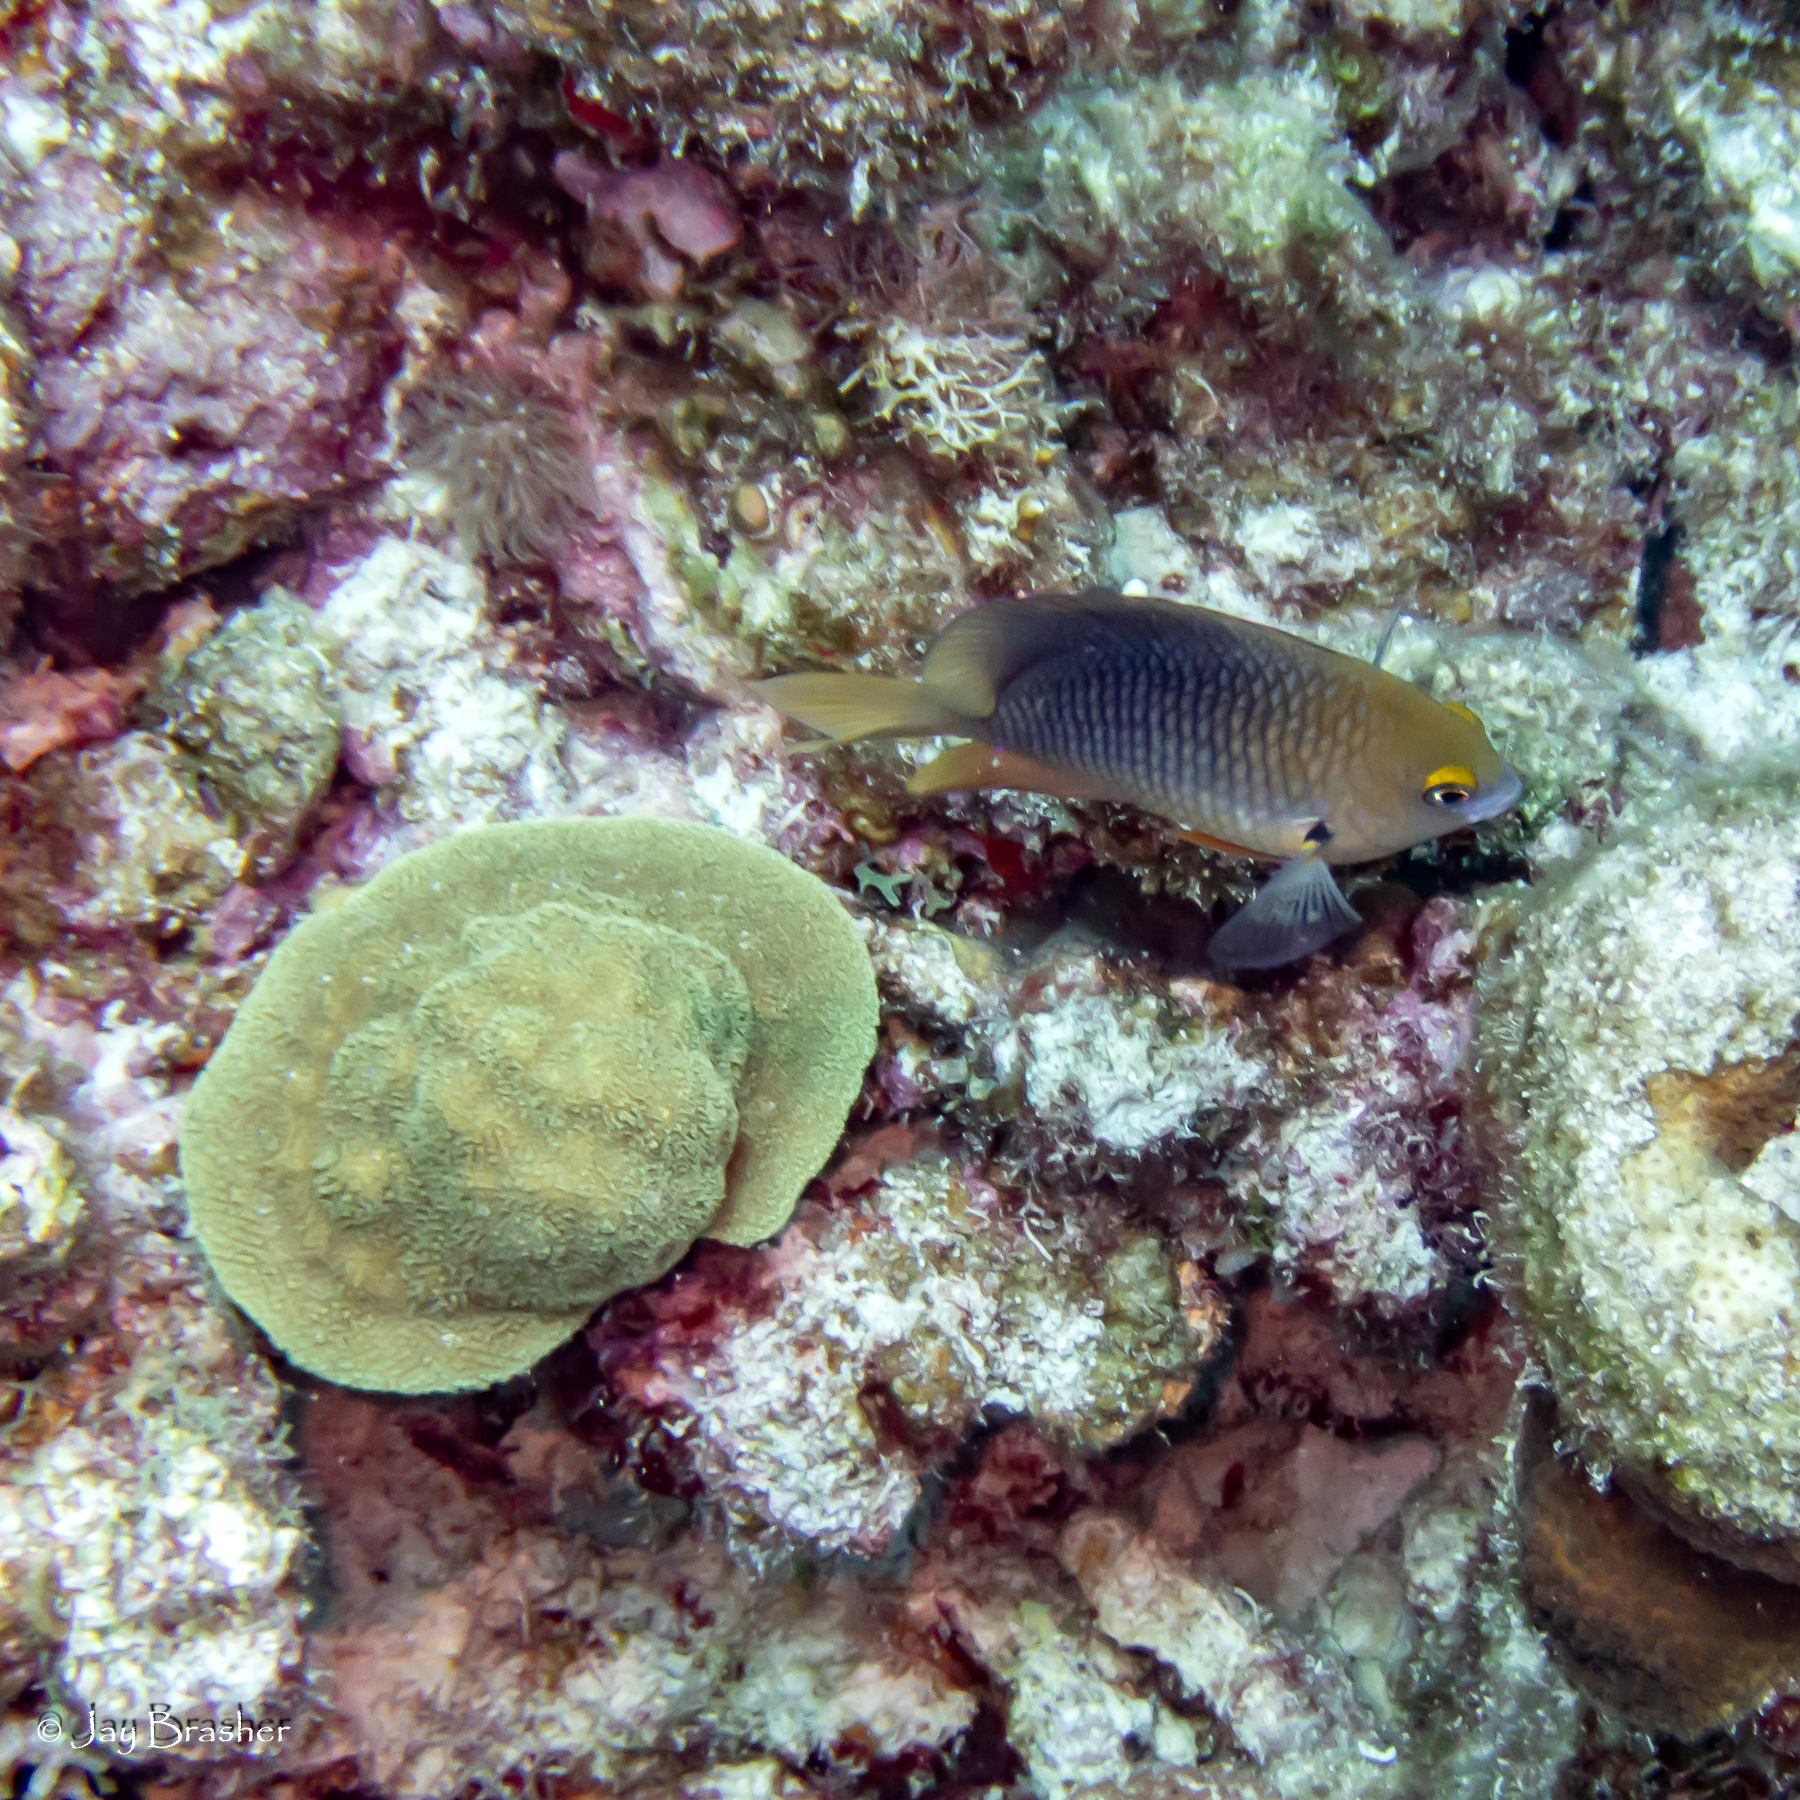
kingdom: Animalia
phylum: Chordata
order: Perciformes
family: Pomacentridae
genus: Stegastes
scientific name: Stegastes planifrons
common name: Threespot damselfish
